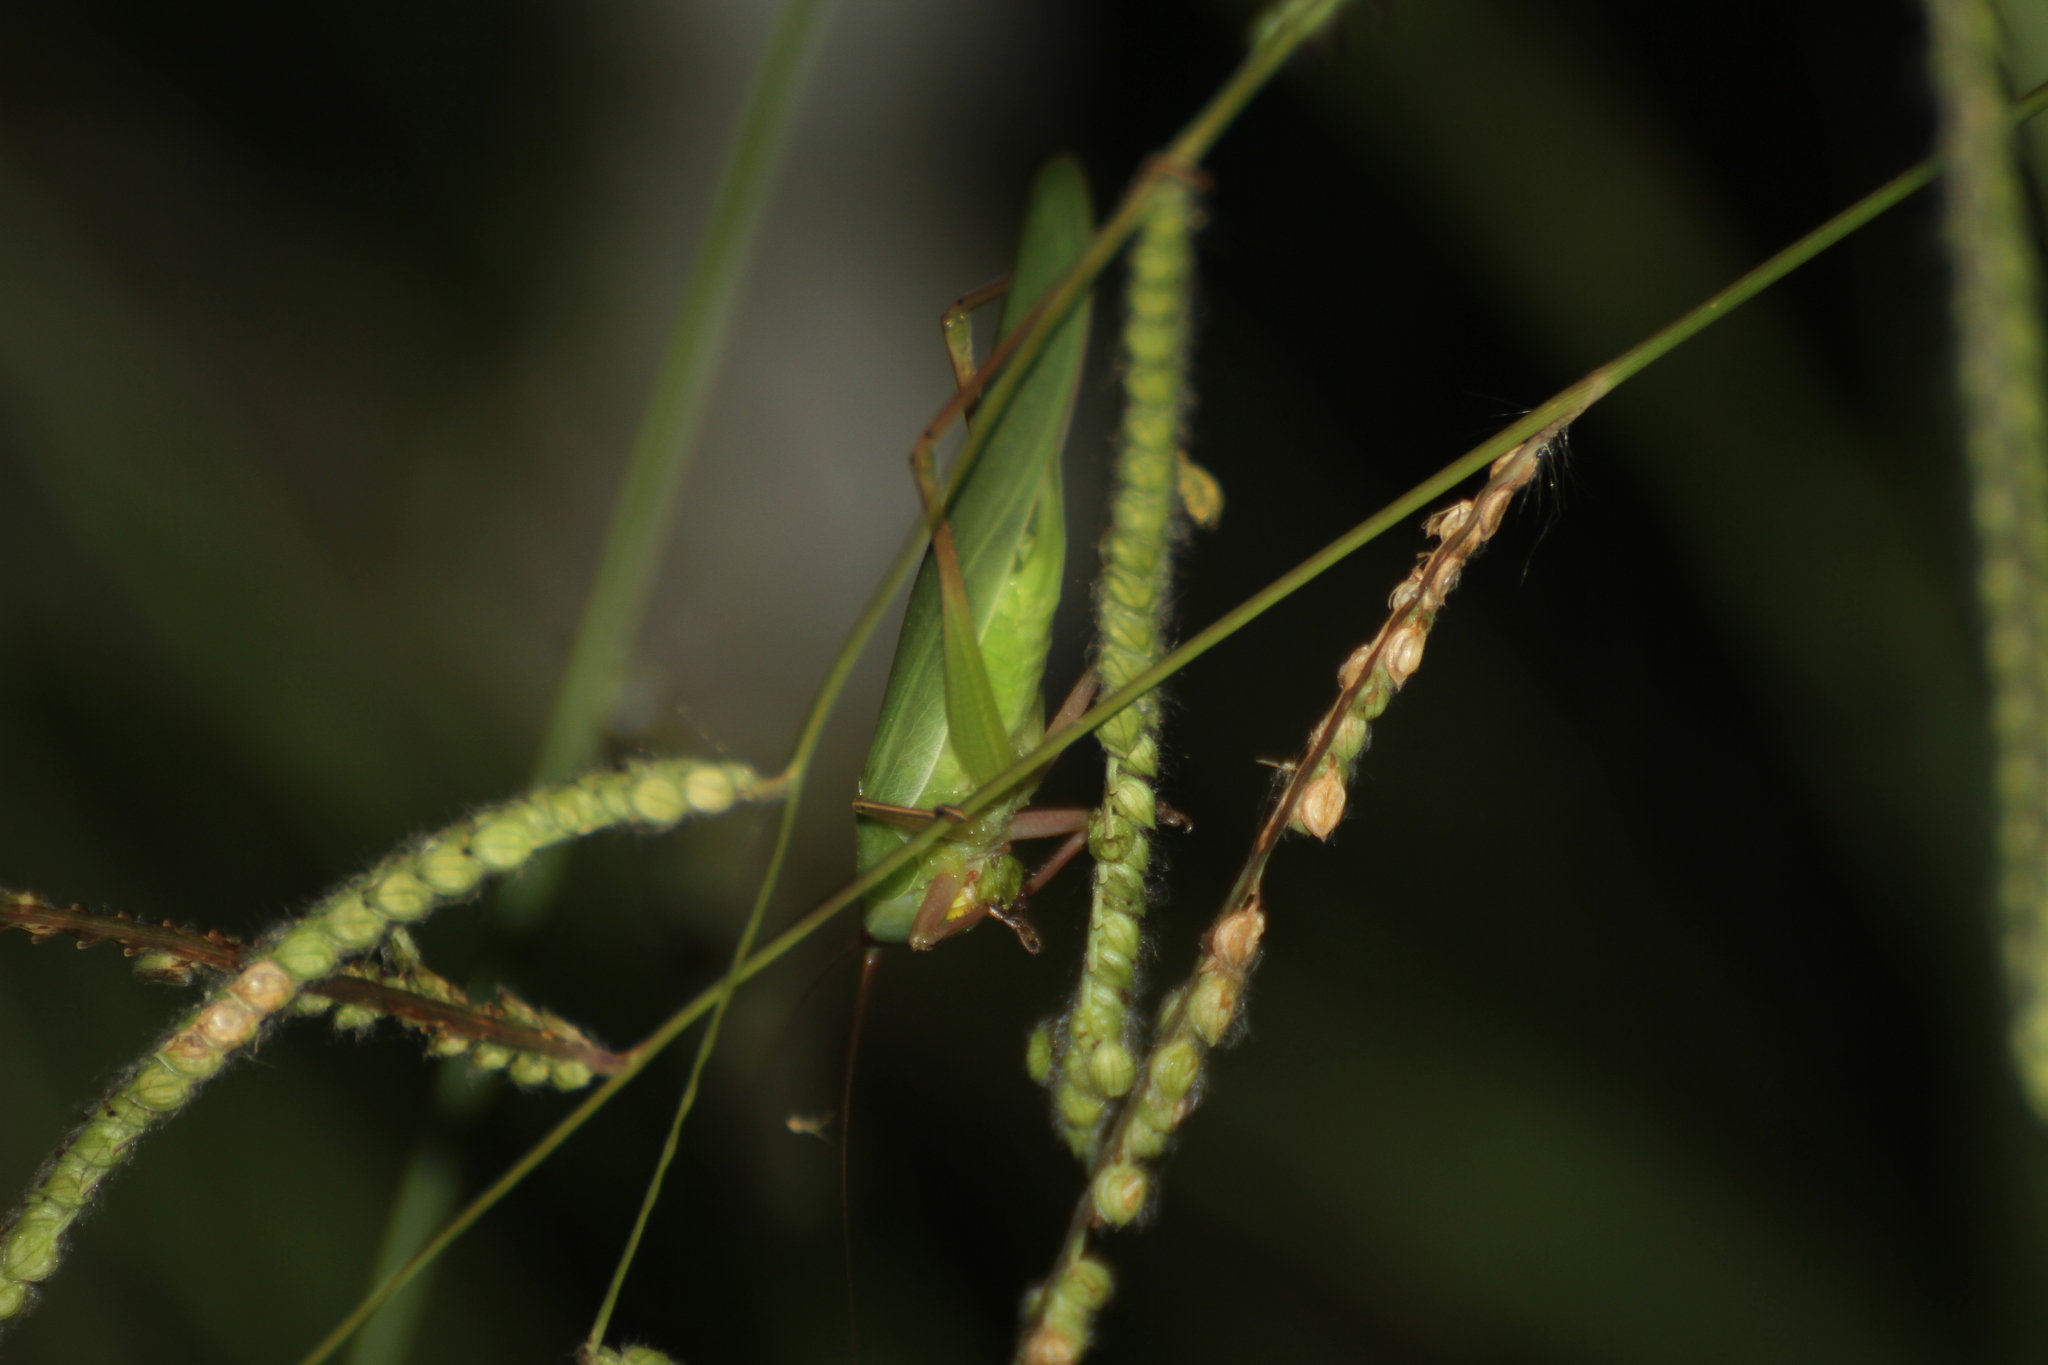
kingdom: Animalia
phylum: Arthropoda
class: Insecta
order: Orthoptera
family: Tettigoniidae
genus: Ruspolia
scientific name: Ruspolia nitidula
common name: Large conehead
